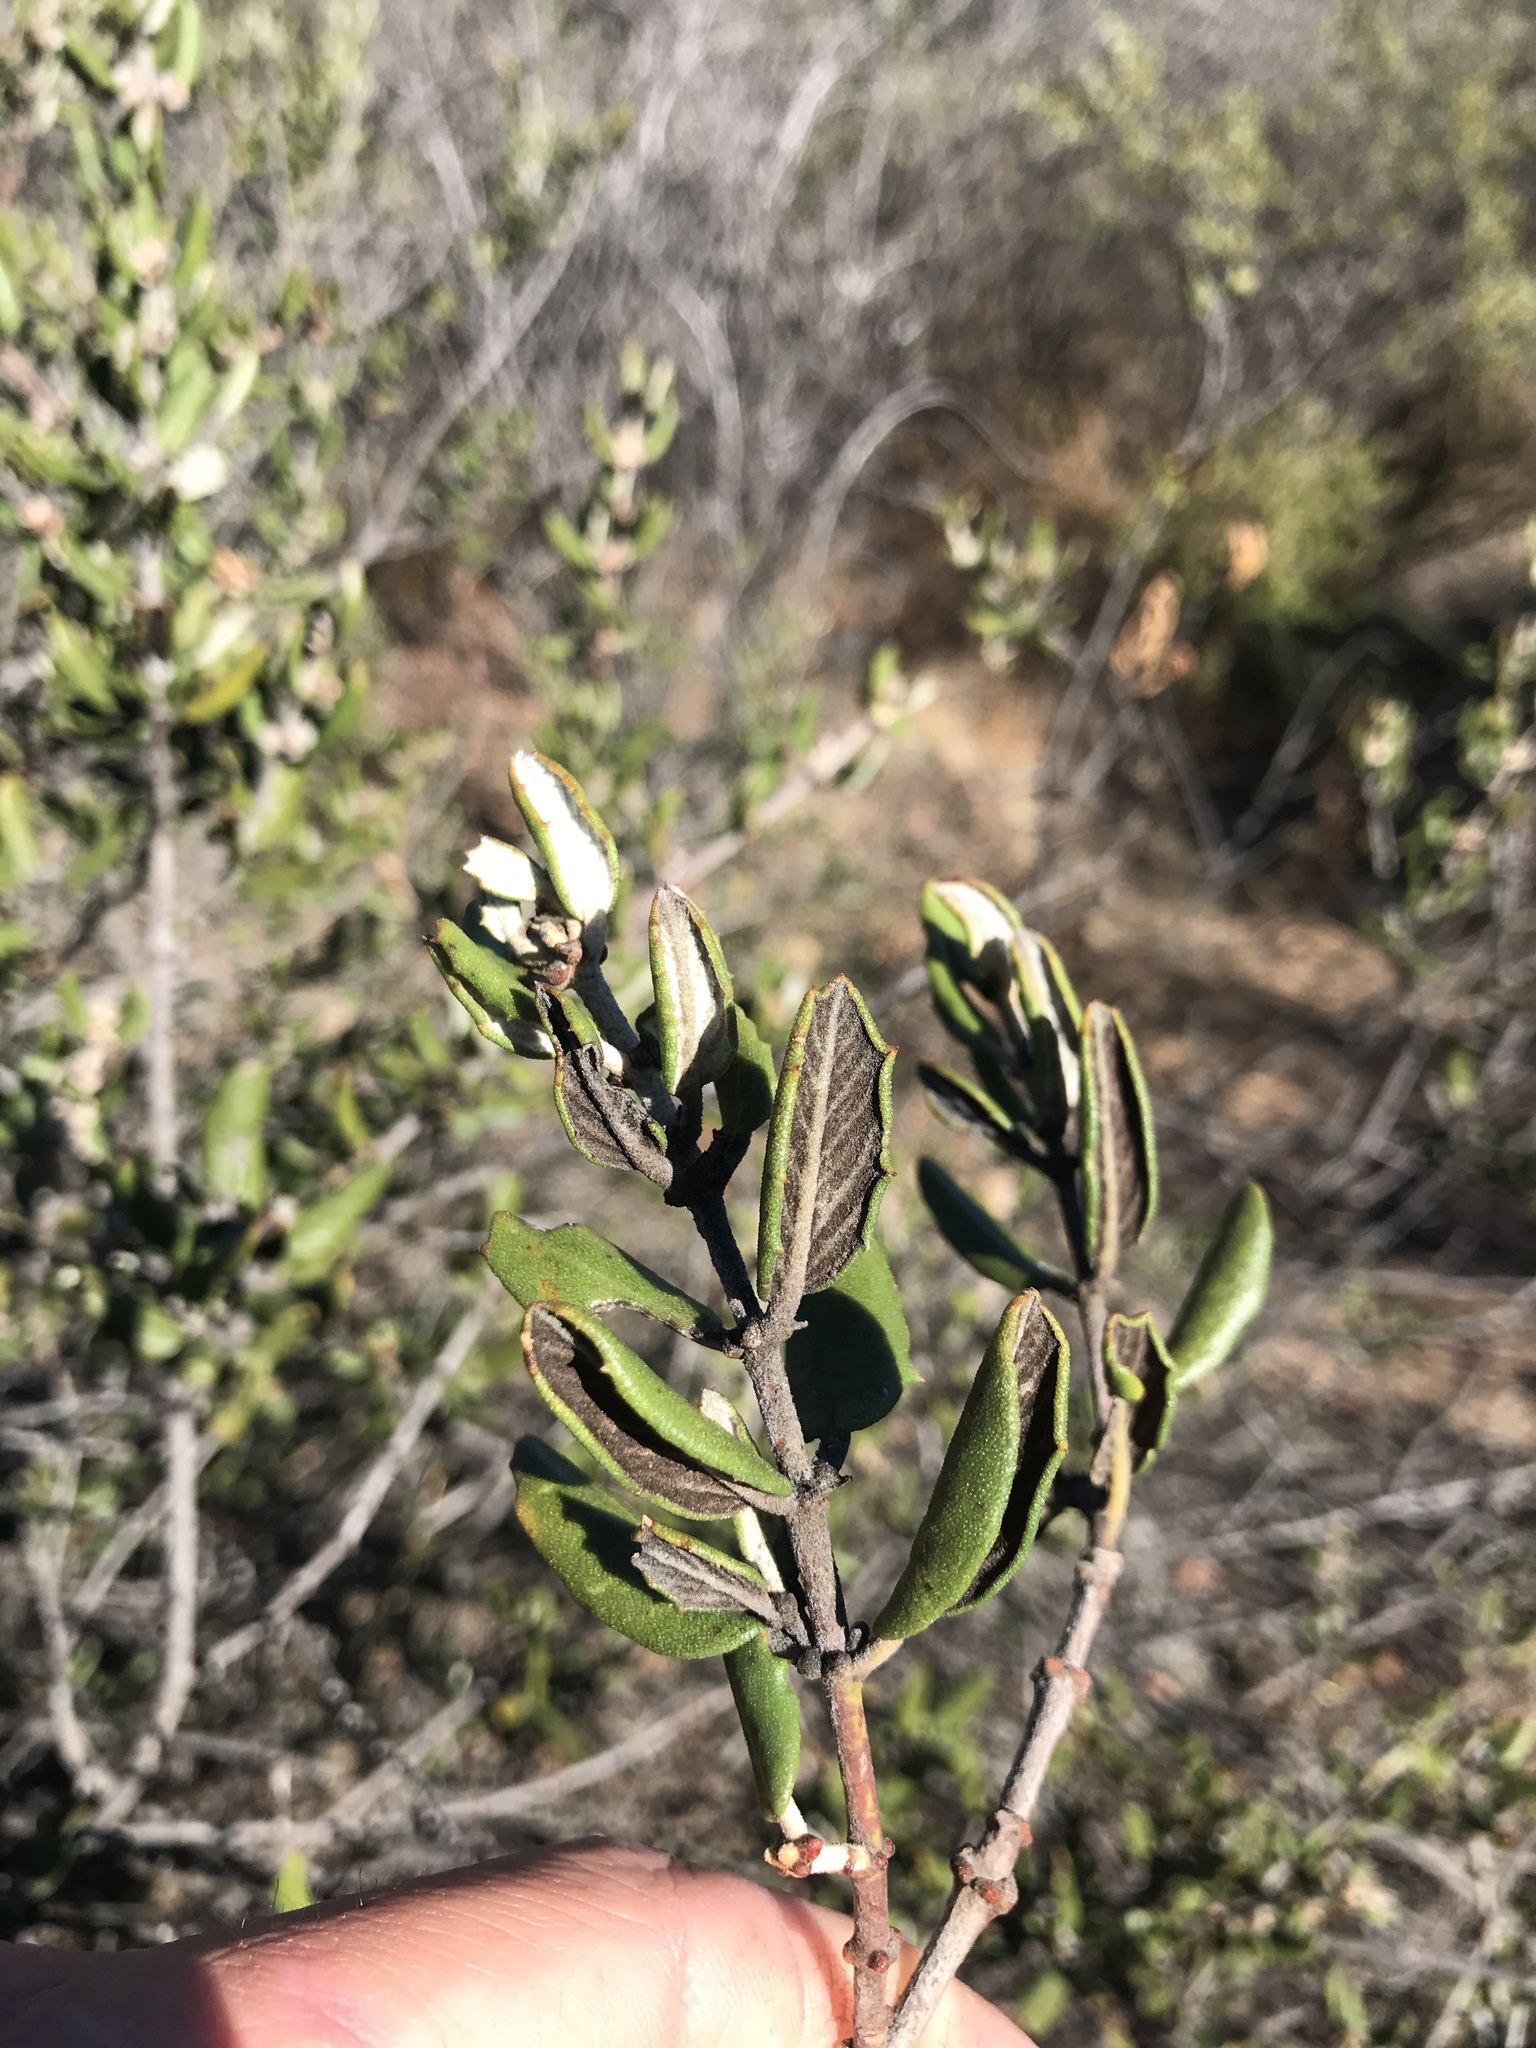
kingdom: Plantae
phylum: Tracheophyta
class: Magnoliopsida
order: Rosales
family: Rhamnaceae
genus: Ceanothus
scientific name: Ceanothus crassifolius
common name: Hoaryleaf ceanothus
